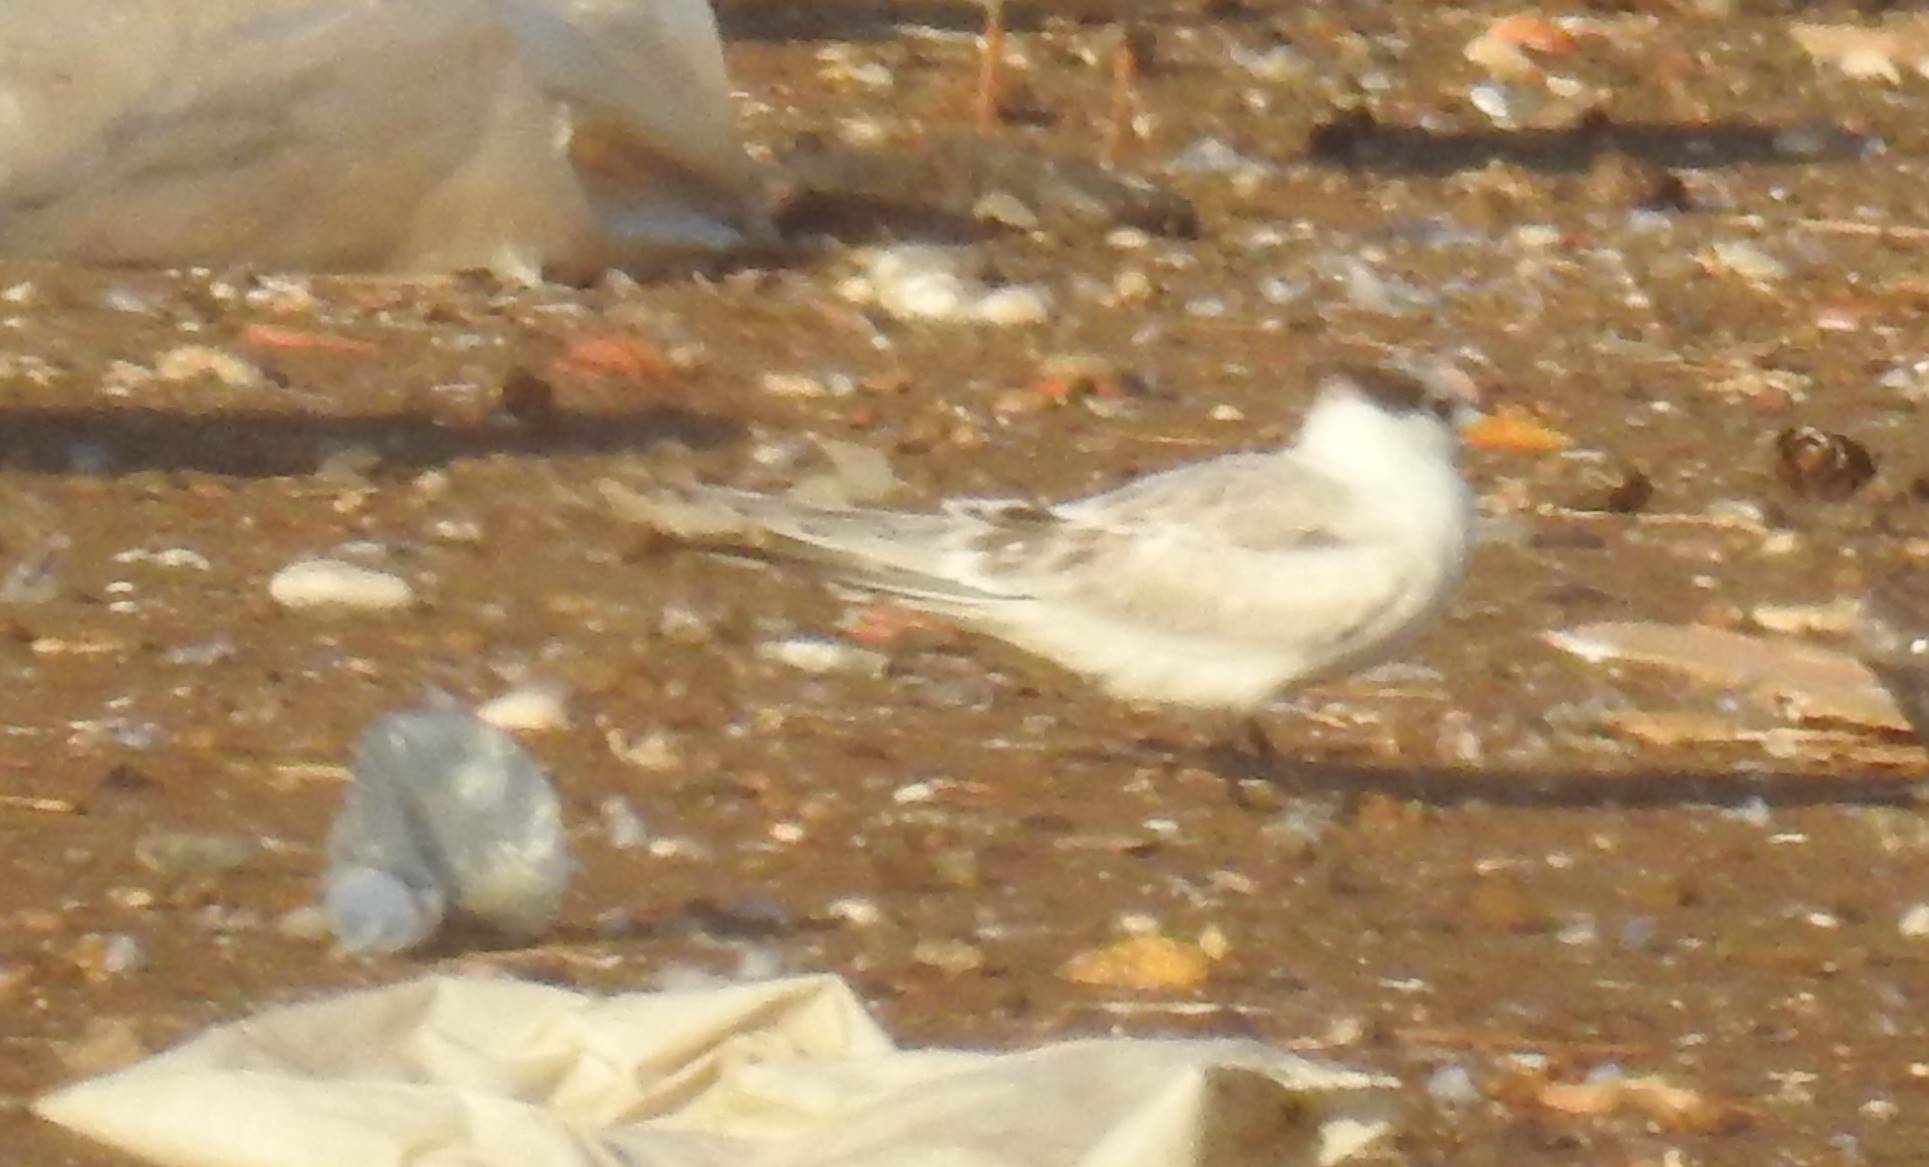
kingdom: Animalia
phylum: Chordata
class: Aves
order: Charadriiformes
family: Laridae
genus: Thalasseus
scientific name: Thalasseus bengalensis
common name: Lesser crested tern
